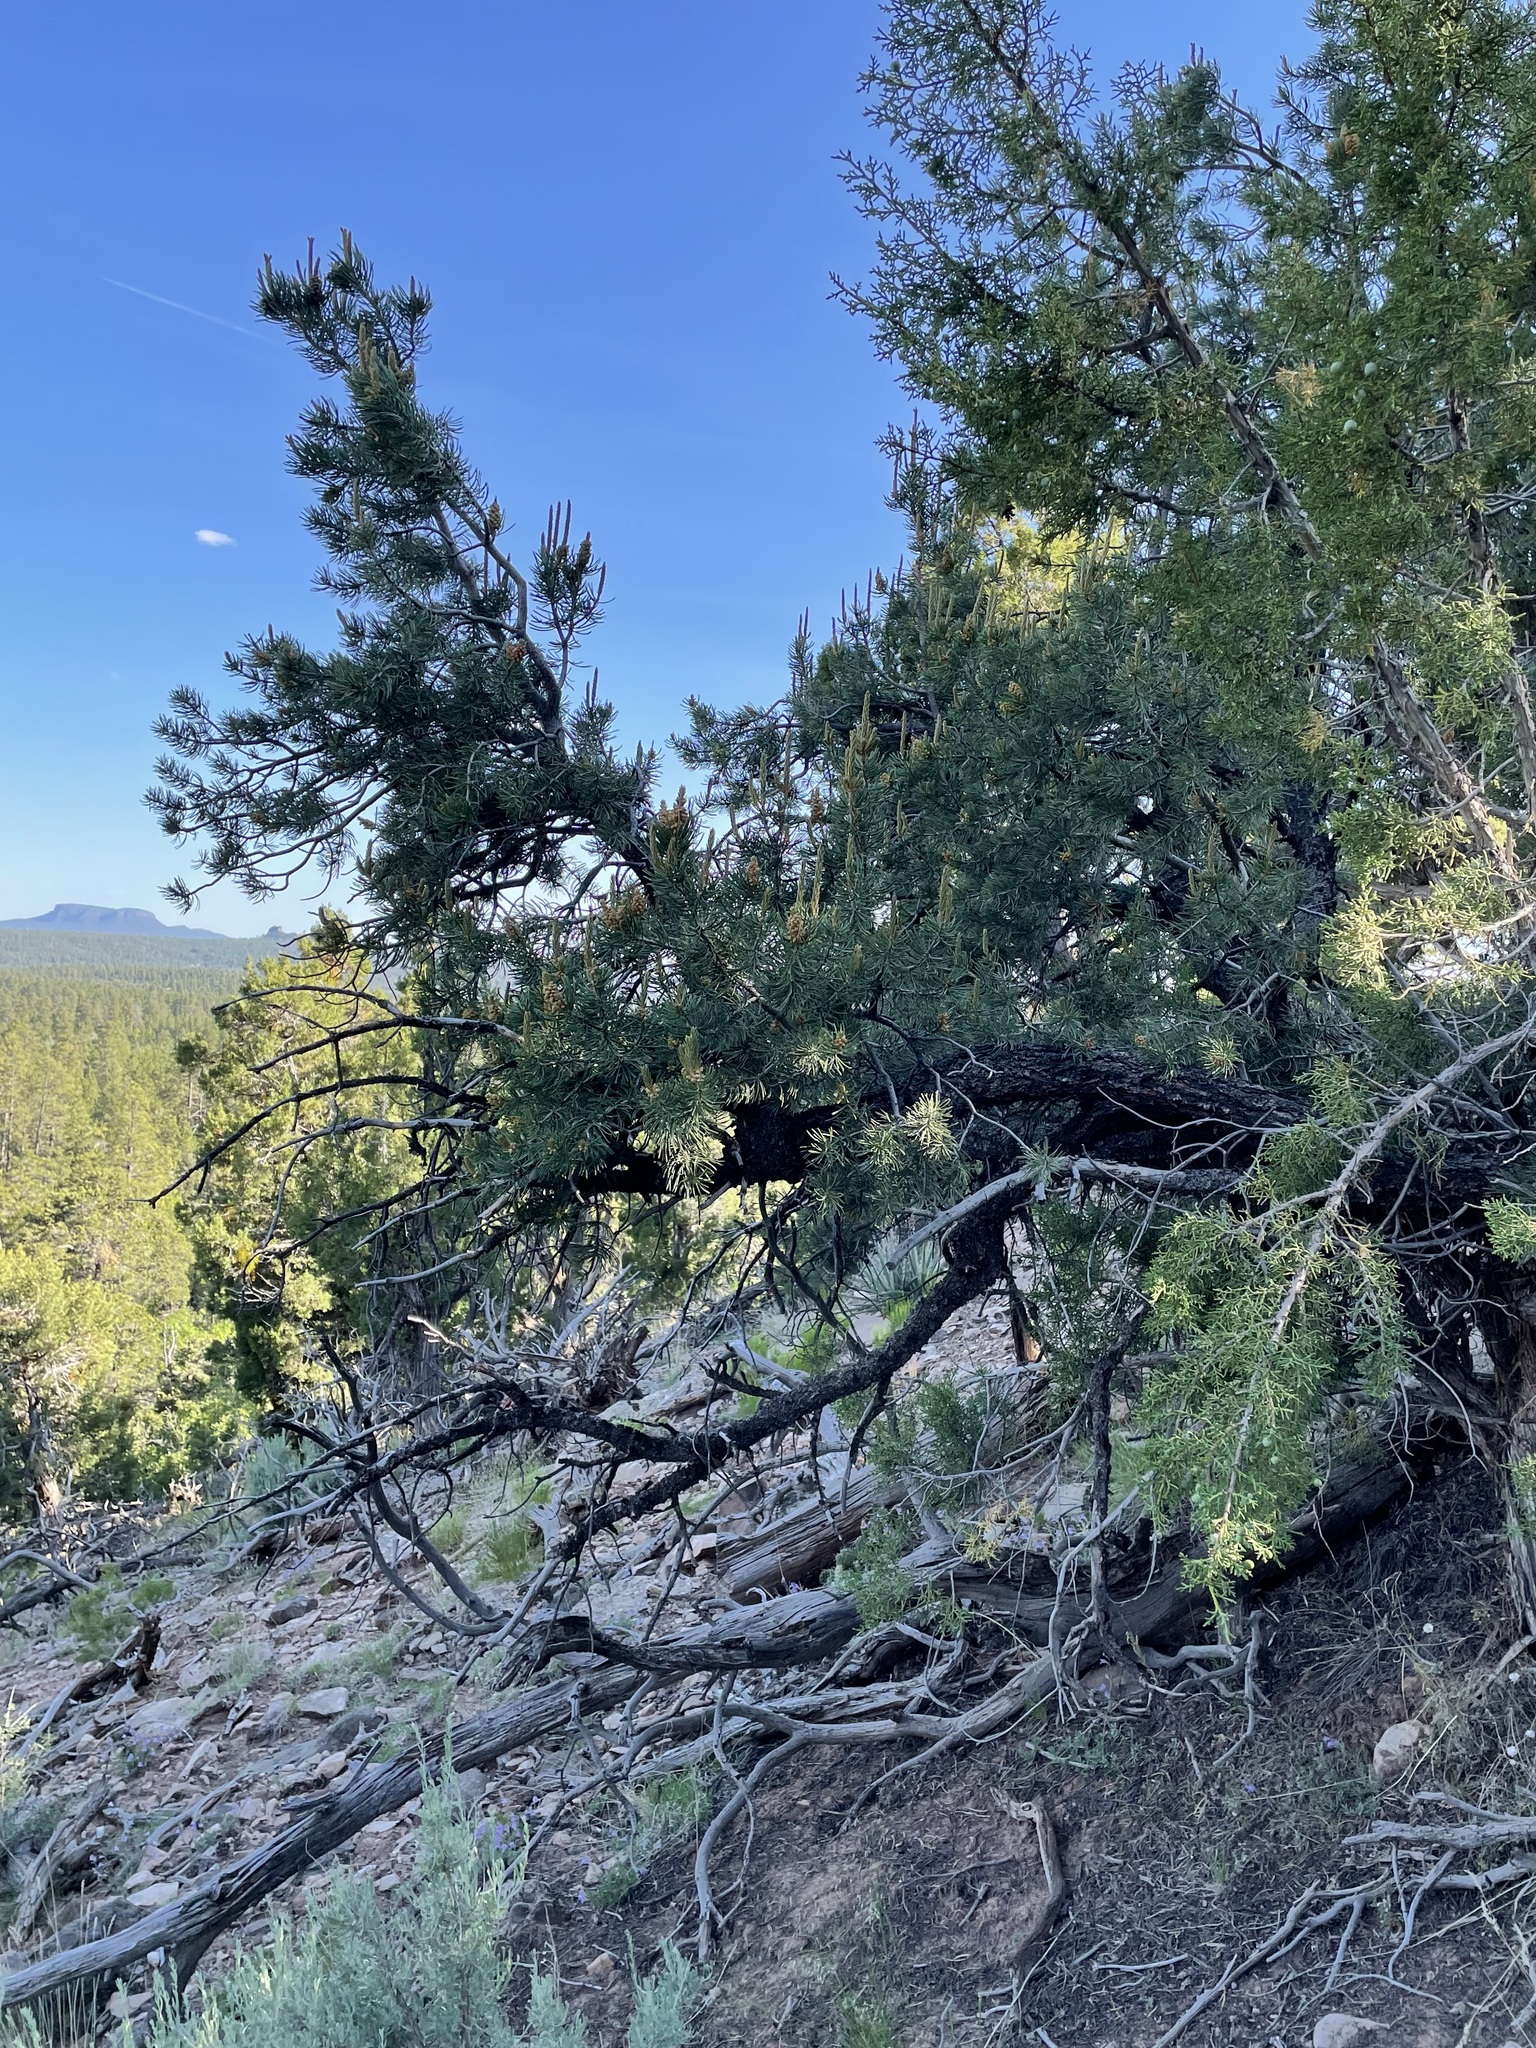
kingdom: Plantae
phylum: Tracheophyta
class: Pinopsida
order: Pinales
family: Pinaceae
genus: Pinus
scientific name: Pinus edulis
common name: Colorado pinyon
